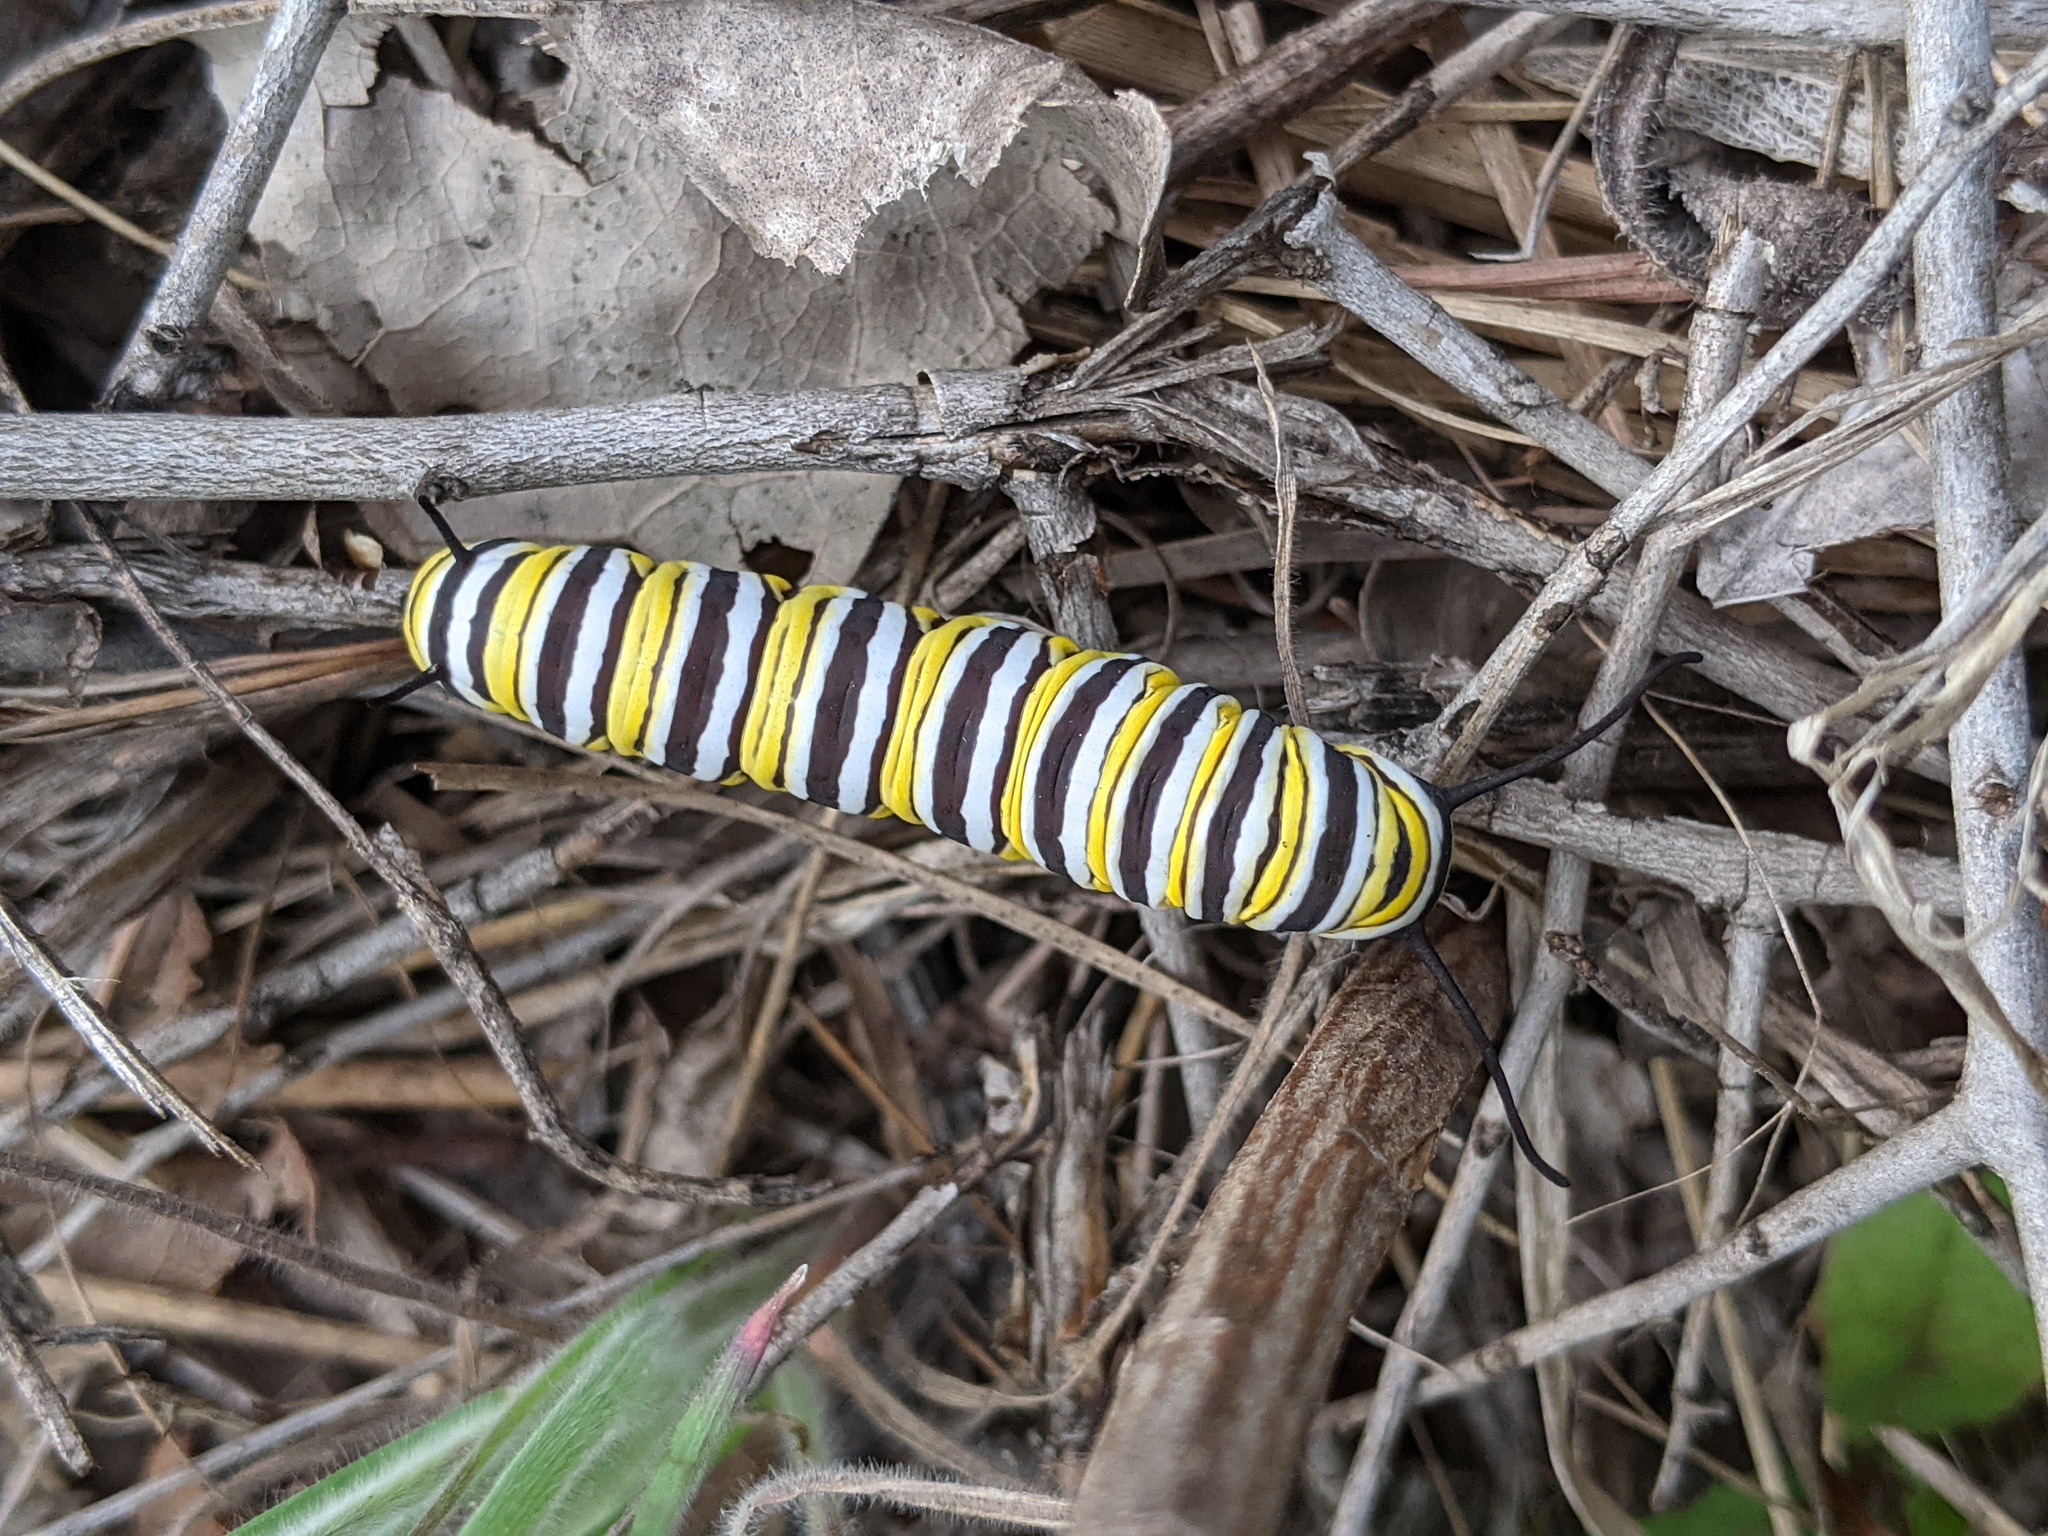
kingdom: Animalia
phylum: Arthropoda
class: Insecta
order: Lepidoptera
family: Nymphalidae
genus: Danaus
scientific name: Danaus plexippus
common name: Monarch
